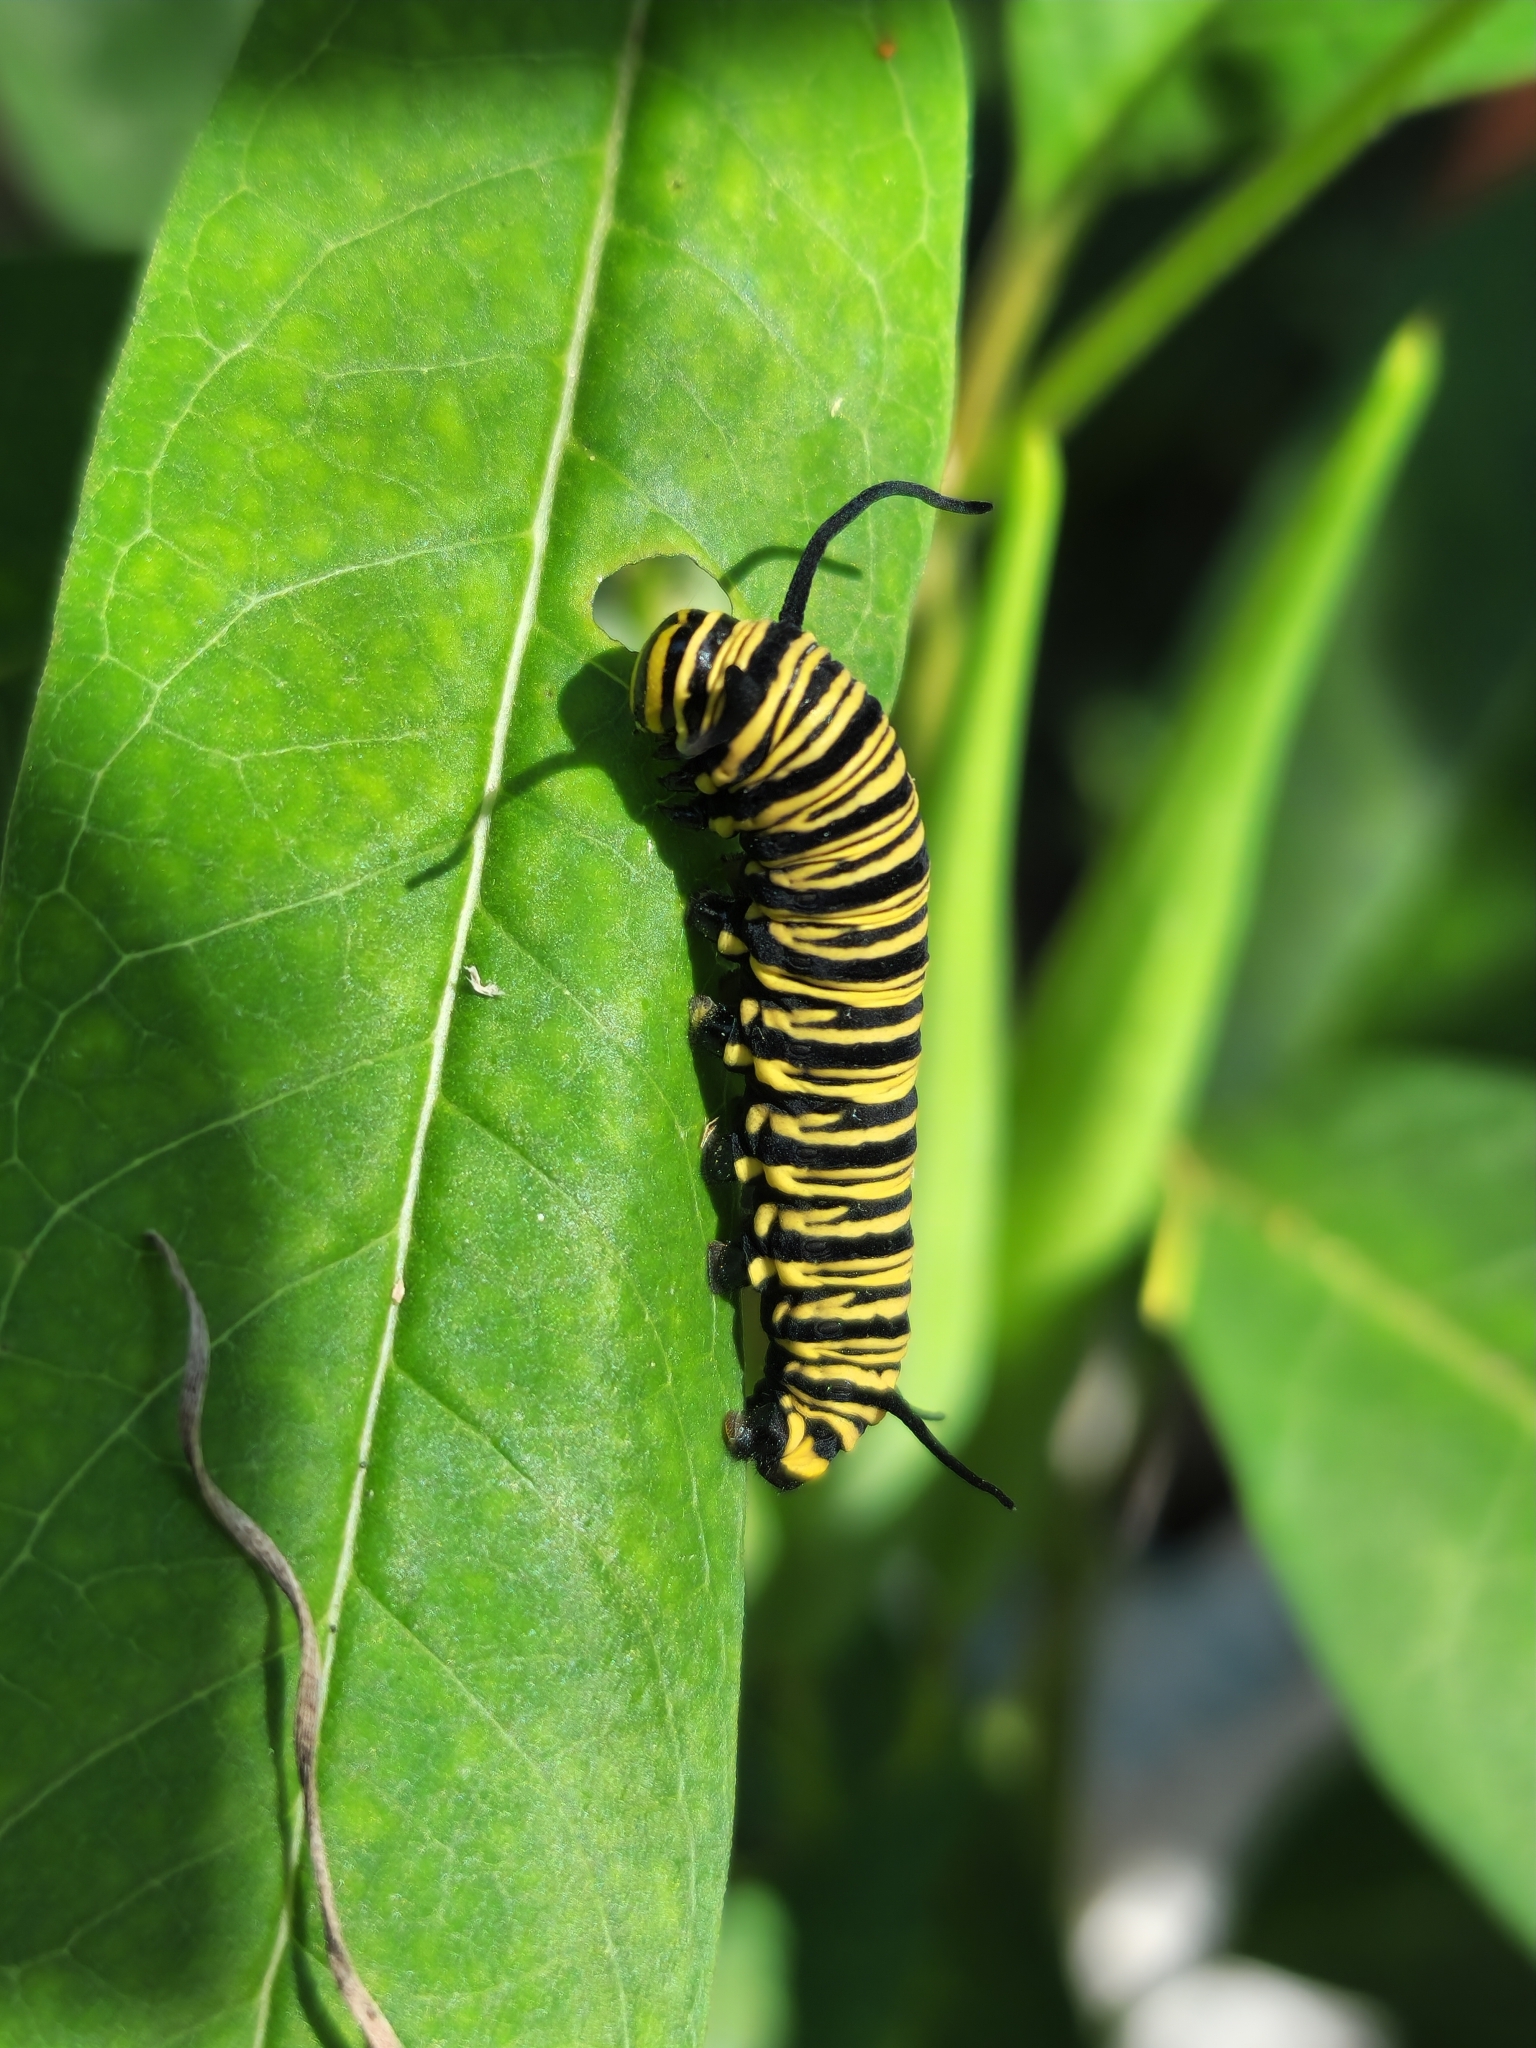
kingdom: Animalia
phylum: Arthropoda
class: Insecta
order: Lepidoptera
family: Nymphalidae
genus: Danaus
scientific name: Danaus erippus
